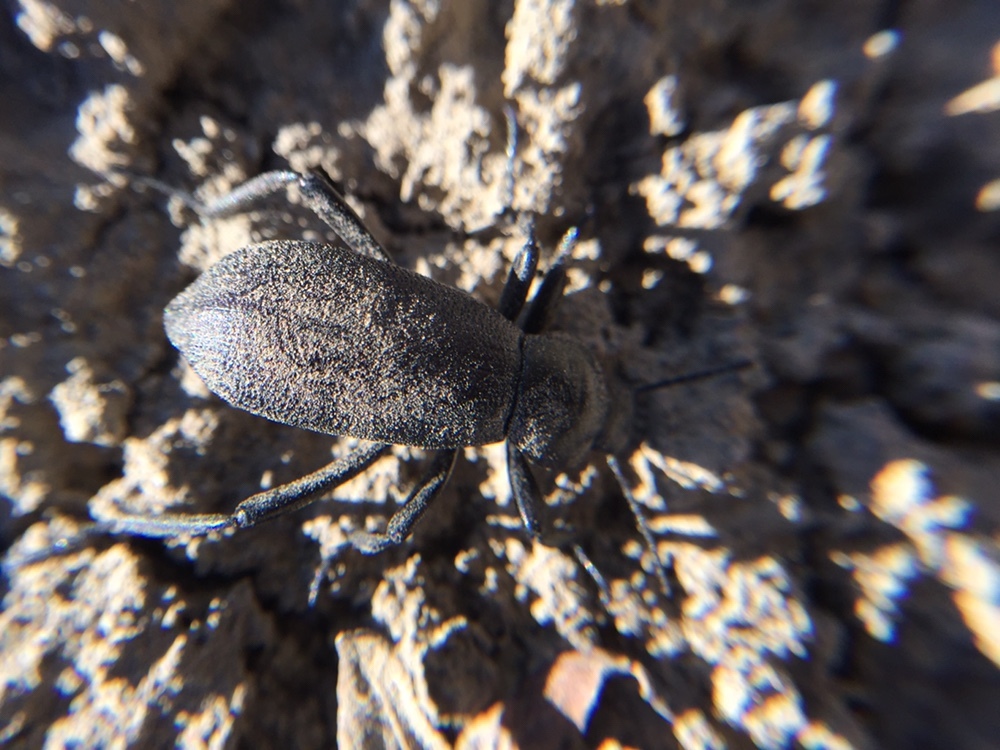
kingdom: Animalia
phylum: Arthropoda
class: Insecta
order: Coleoptera
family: Tenebrionidae
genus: Eleodes
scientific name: Eleodes obscura
